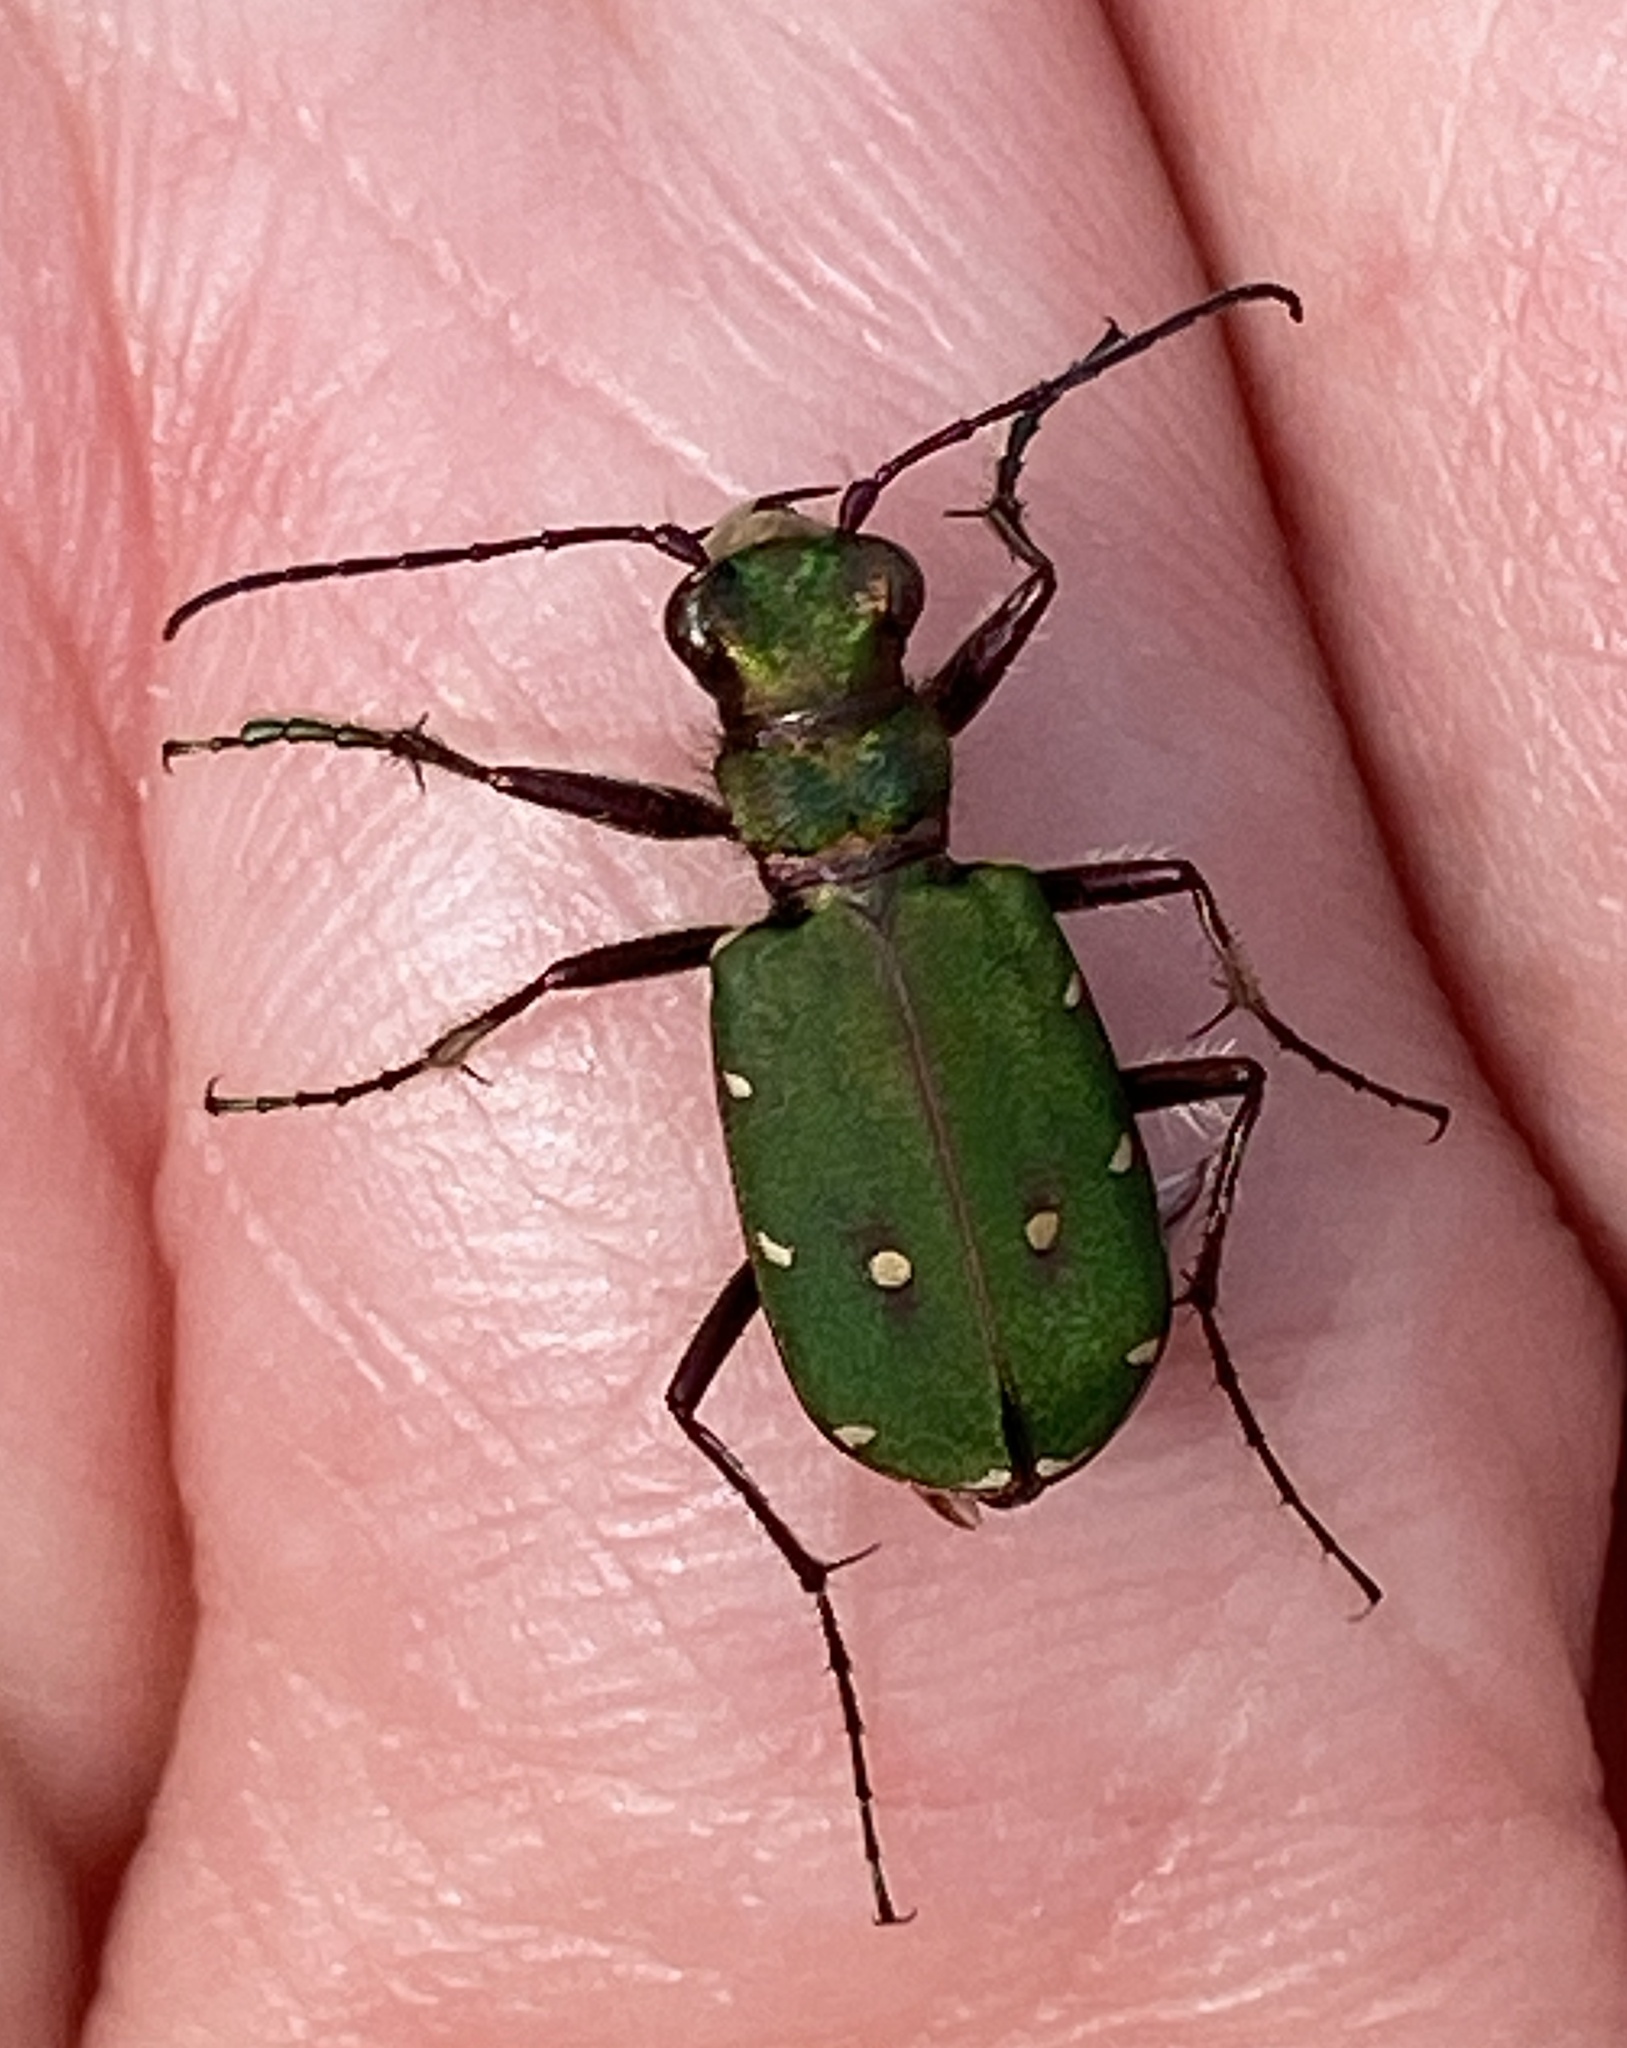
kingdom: Animalia
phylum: Arthropoda
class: Insecta
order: Coleoptera
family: Carabidae
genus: Cicindela
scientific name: Cicindela campestris
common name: Common tiger beetle
